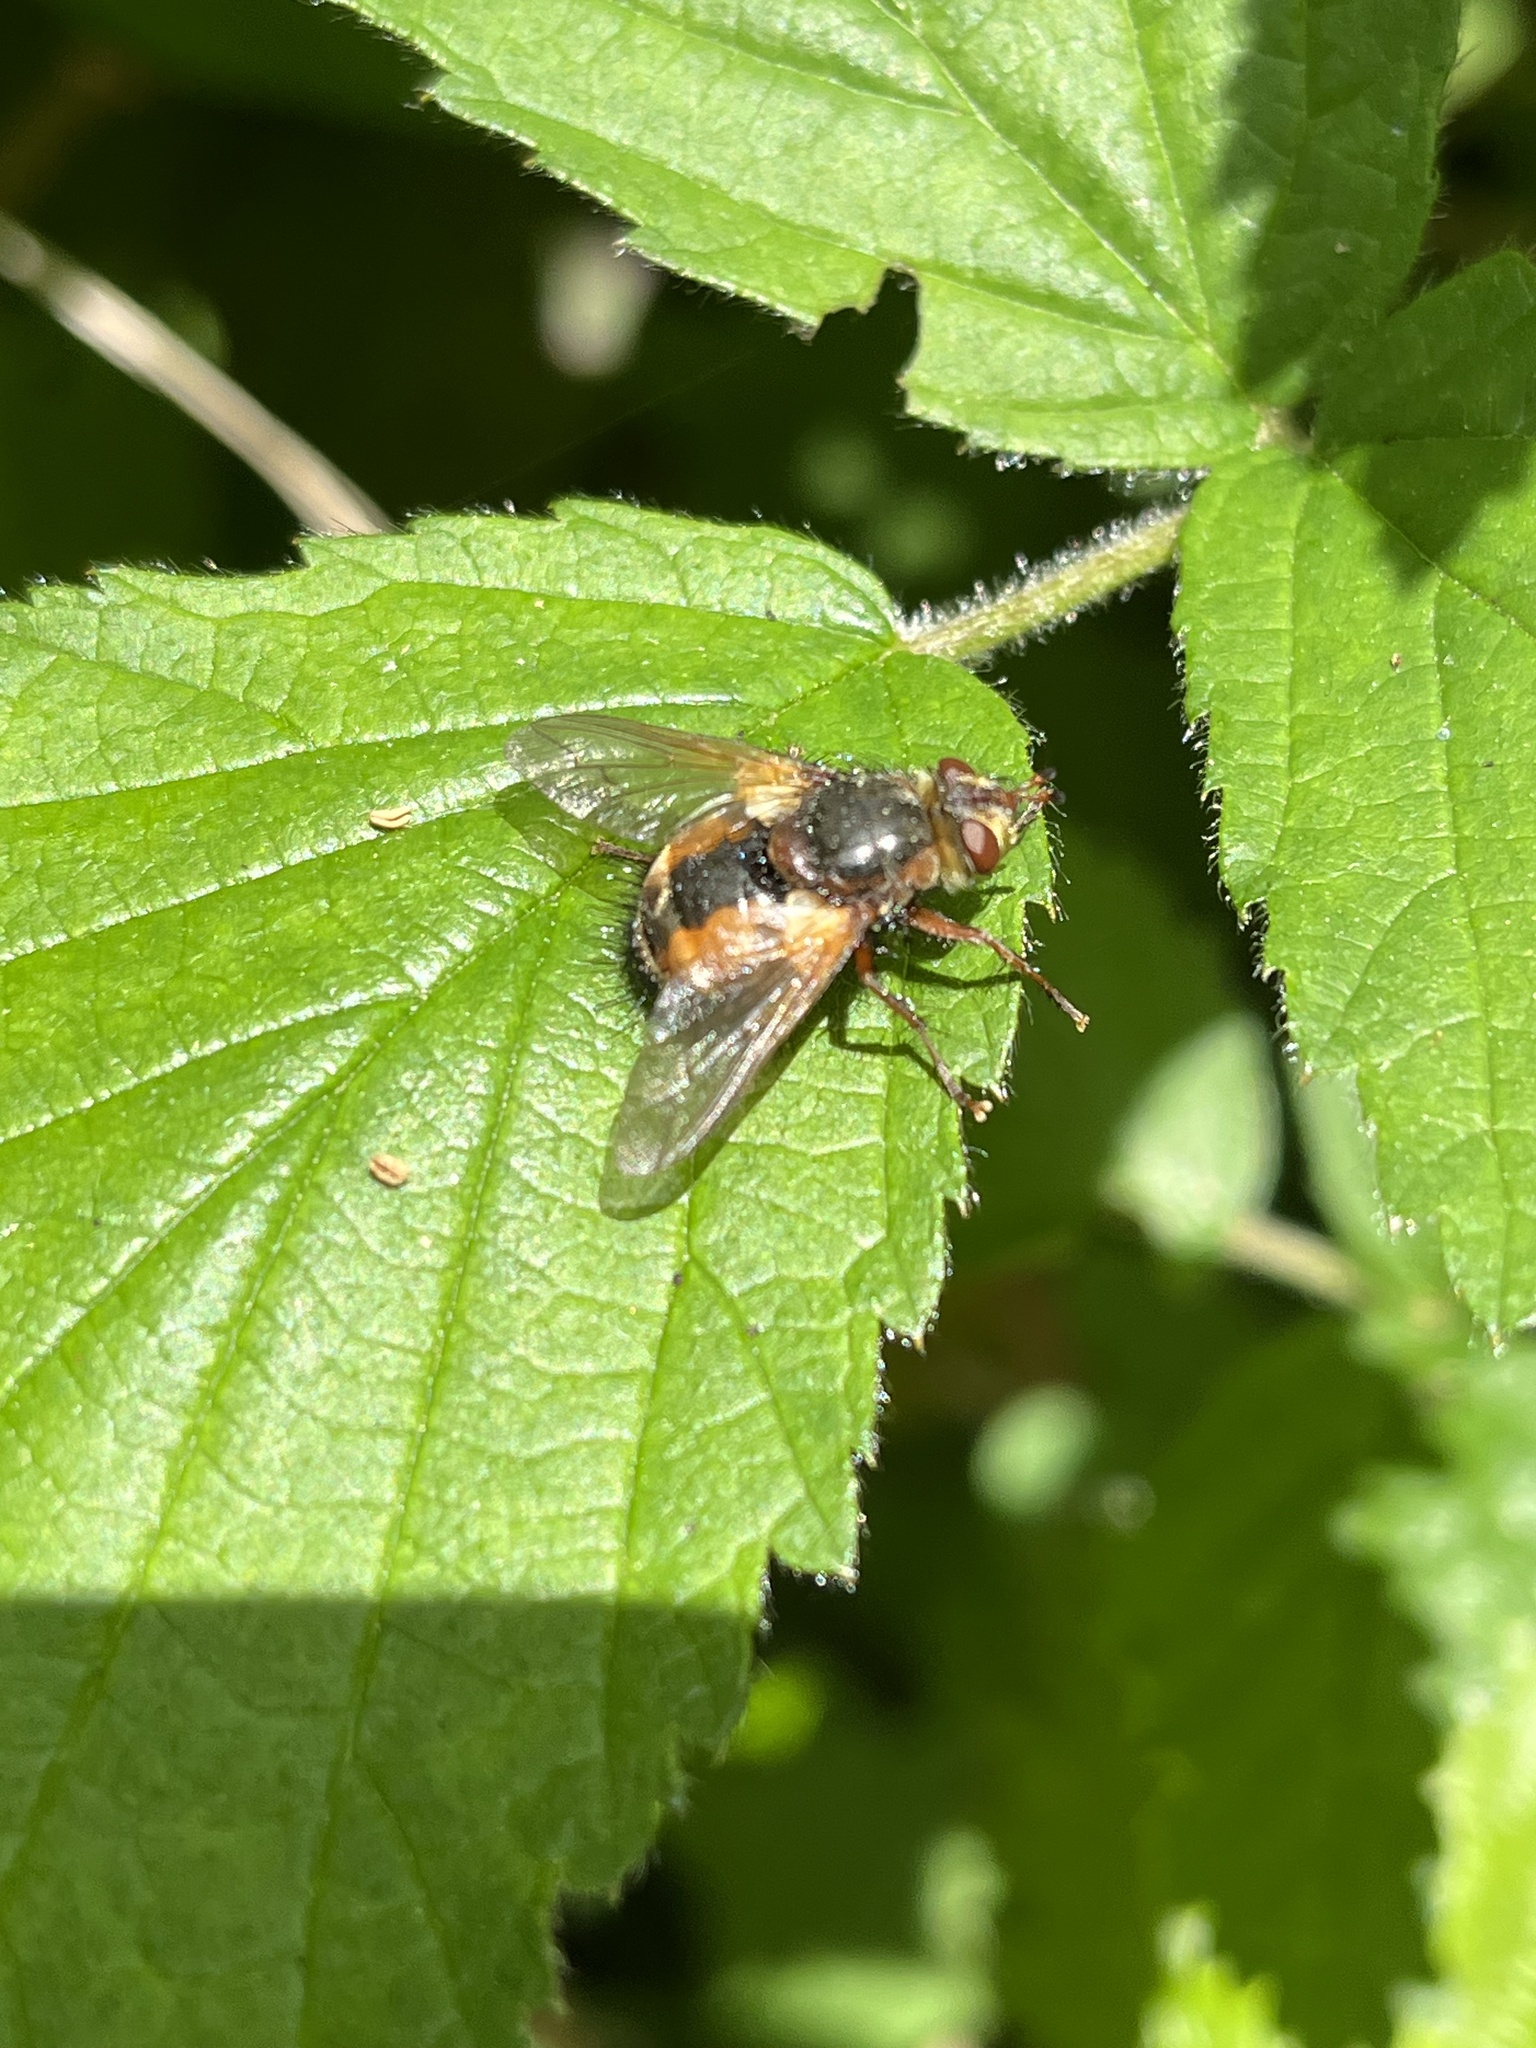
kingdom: Animalia
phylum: Arthropoda
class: Insecta
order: Diptera
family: Tachinidae
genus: Tachina
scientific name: Tachina fera
